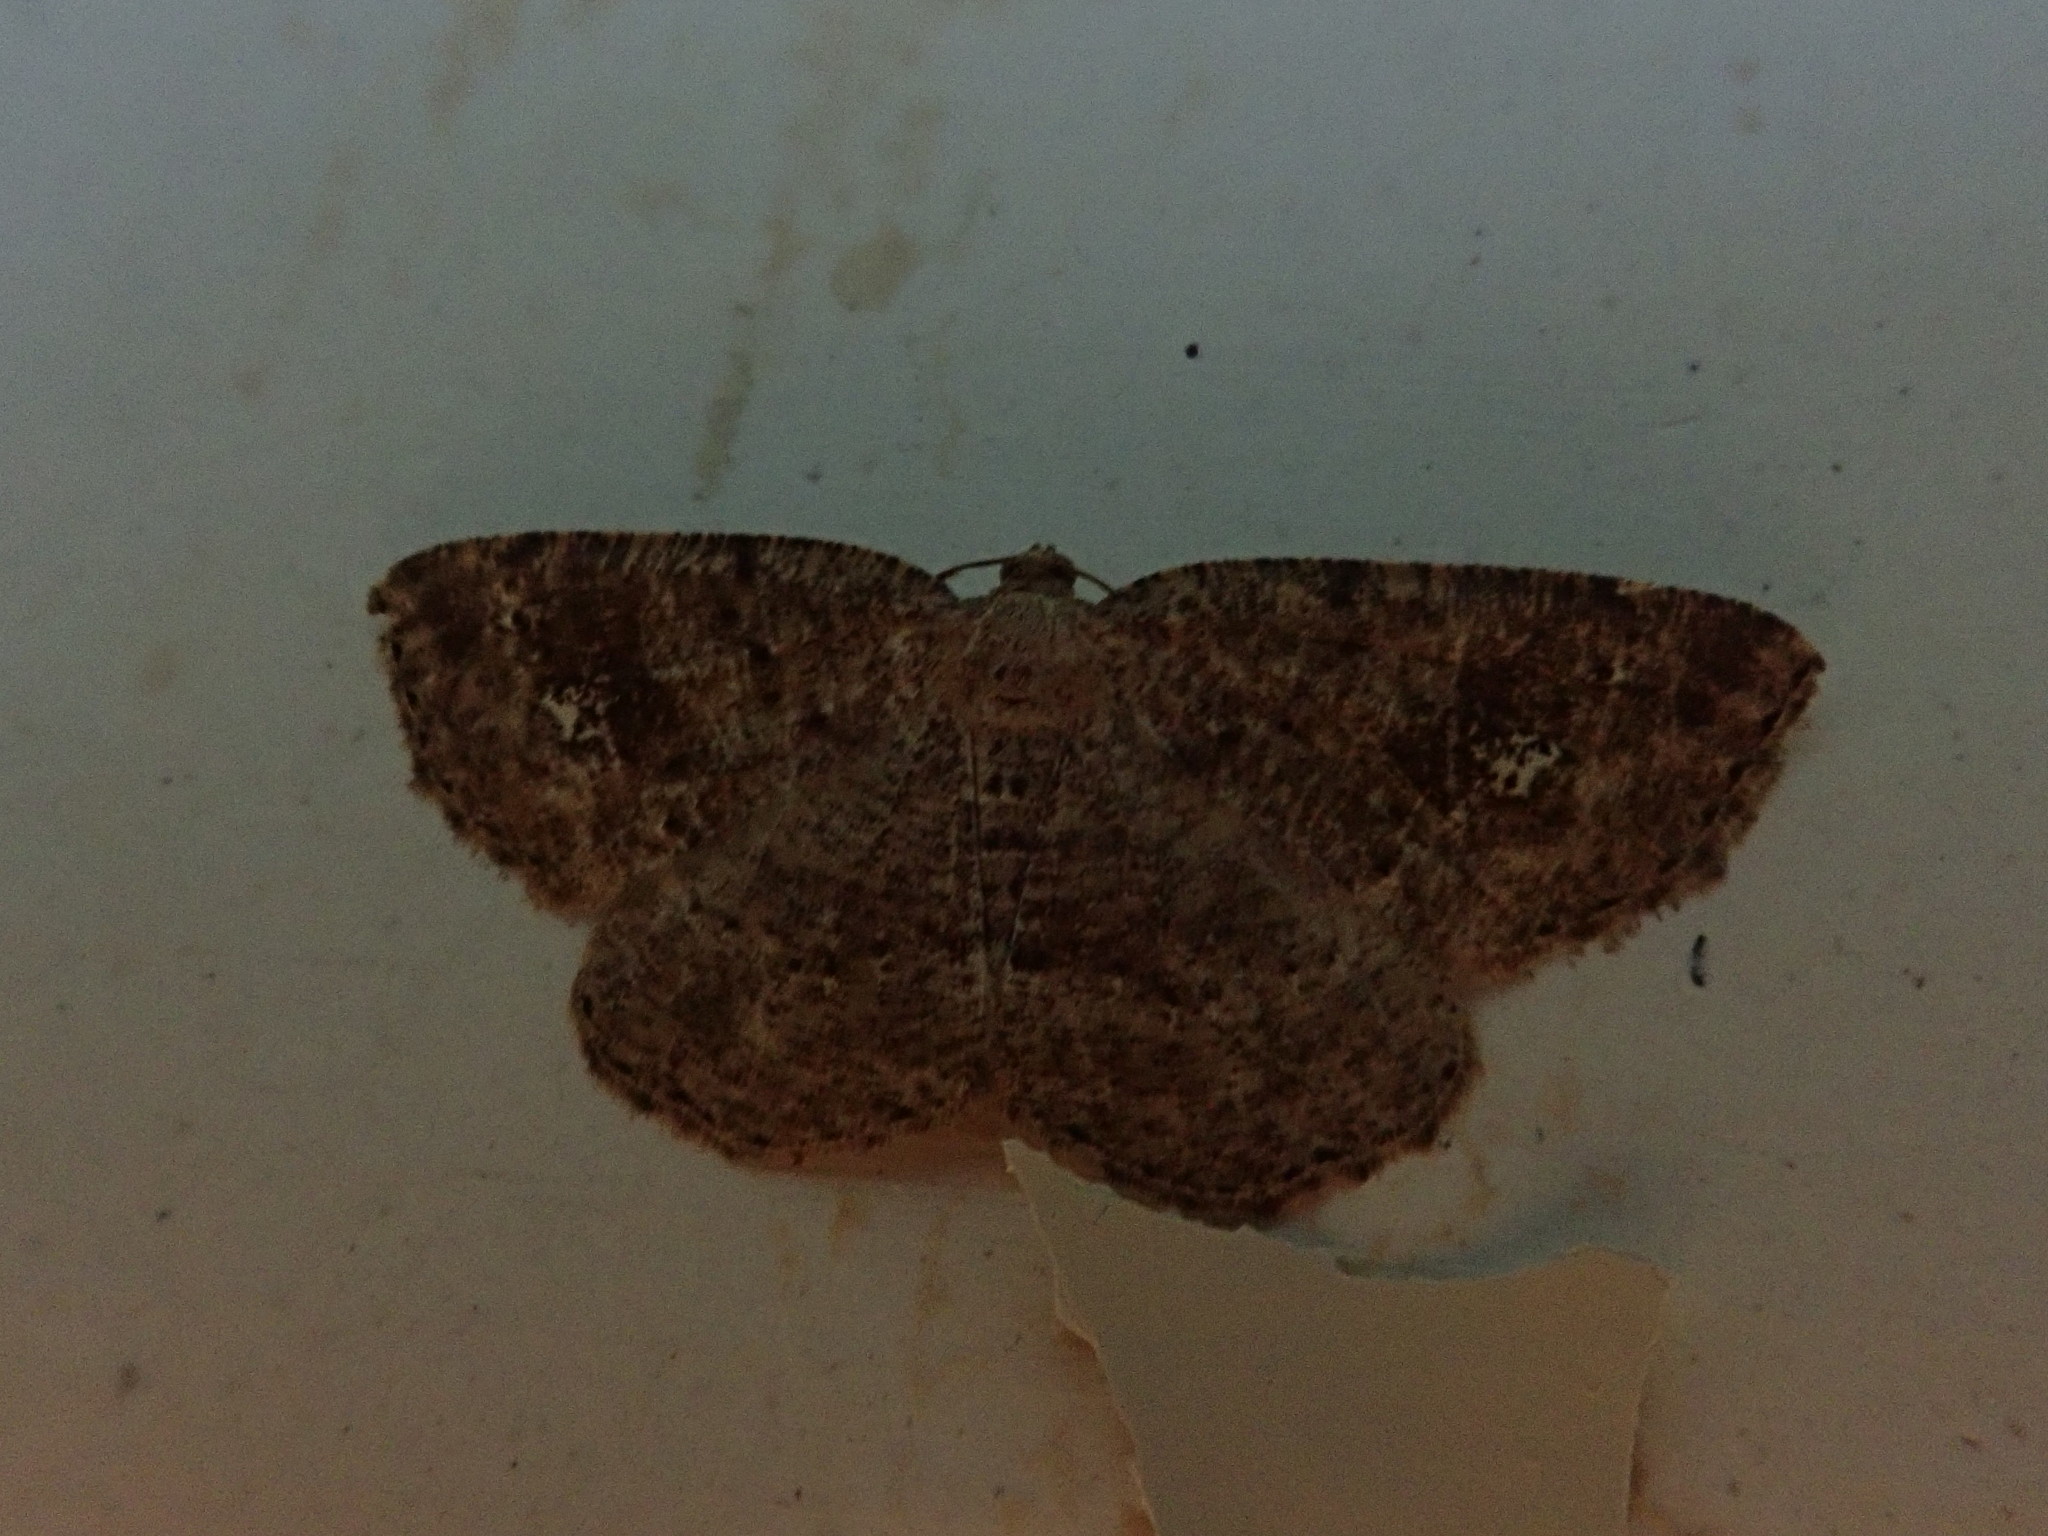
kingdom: Animalia
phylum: Arthropoda
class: Insecta
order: Lepidoptera
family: Geometridae
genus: Homochlodes
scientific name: Homochlodes fritillaria
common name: Pale homochlodes
